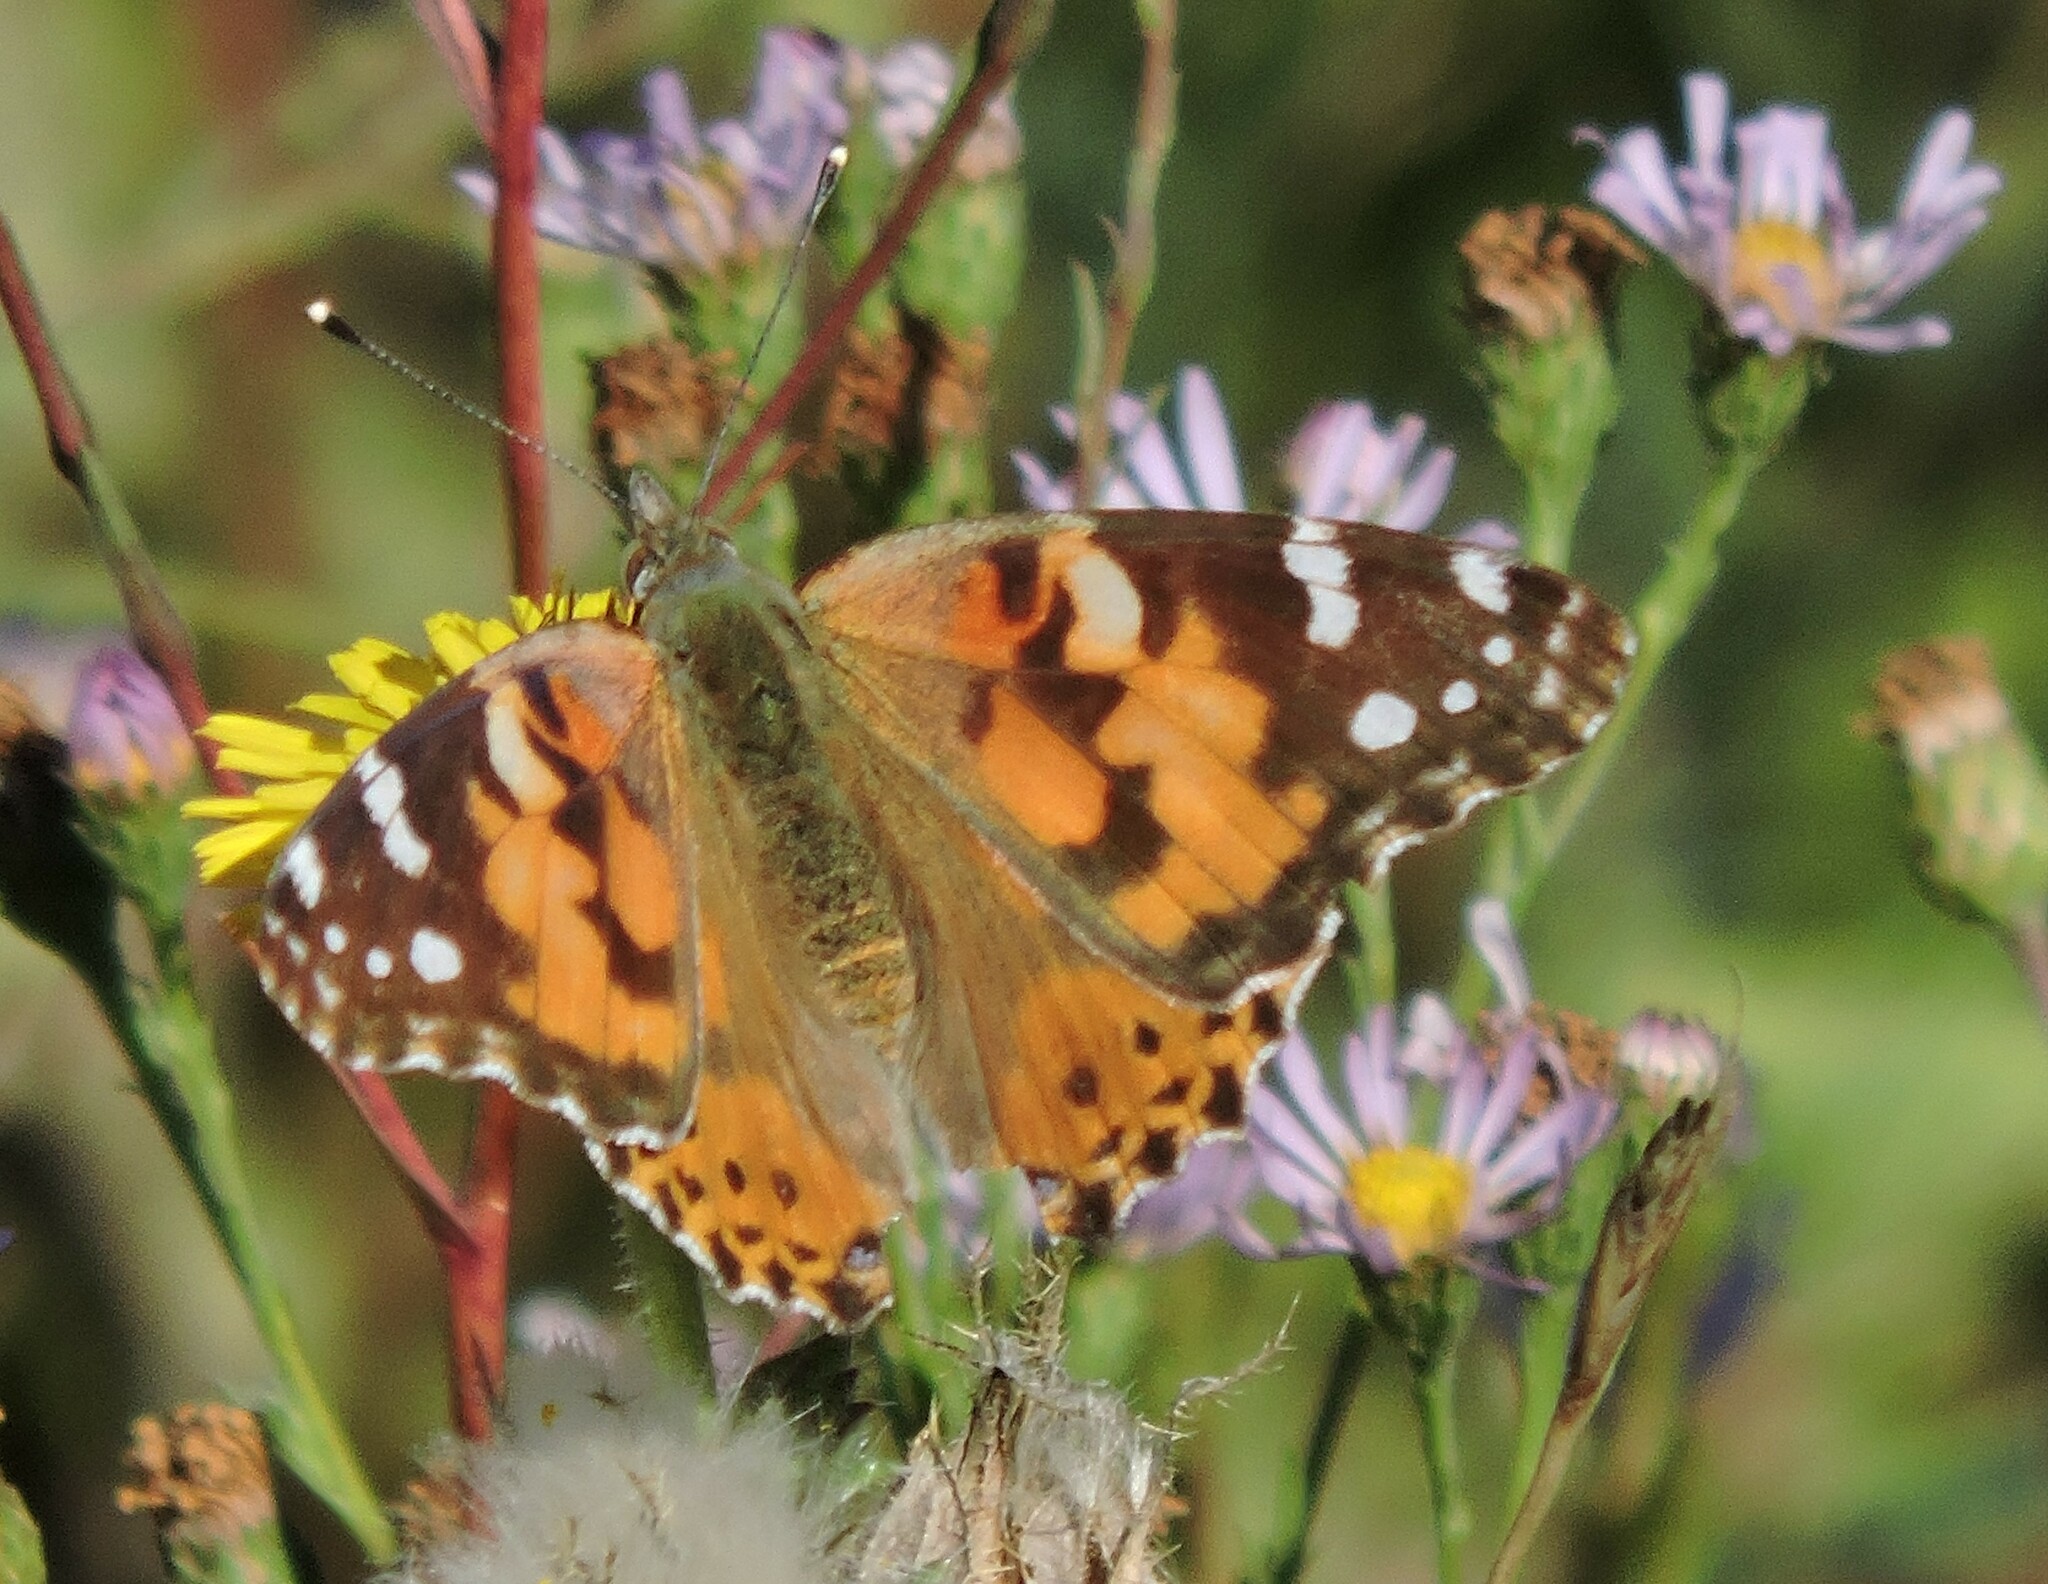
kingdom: Animalia
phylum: Arthropoda
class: Insecta
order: Lepidoptera
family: Nymphalidae
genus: Vanessa
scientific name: Vanessa cardui
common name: Painted lady
